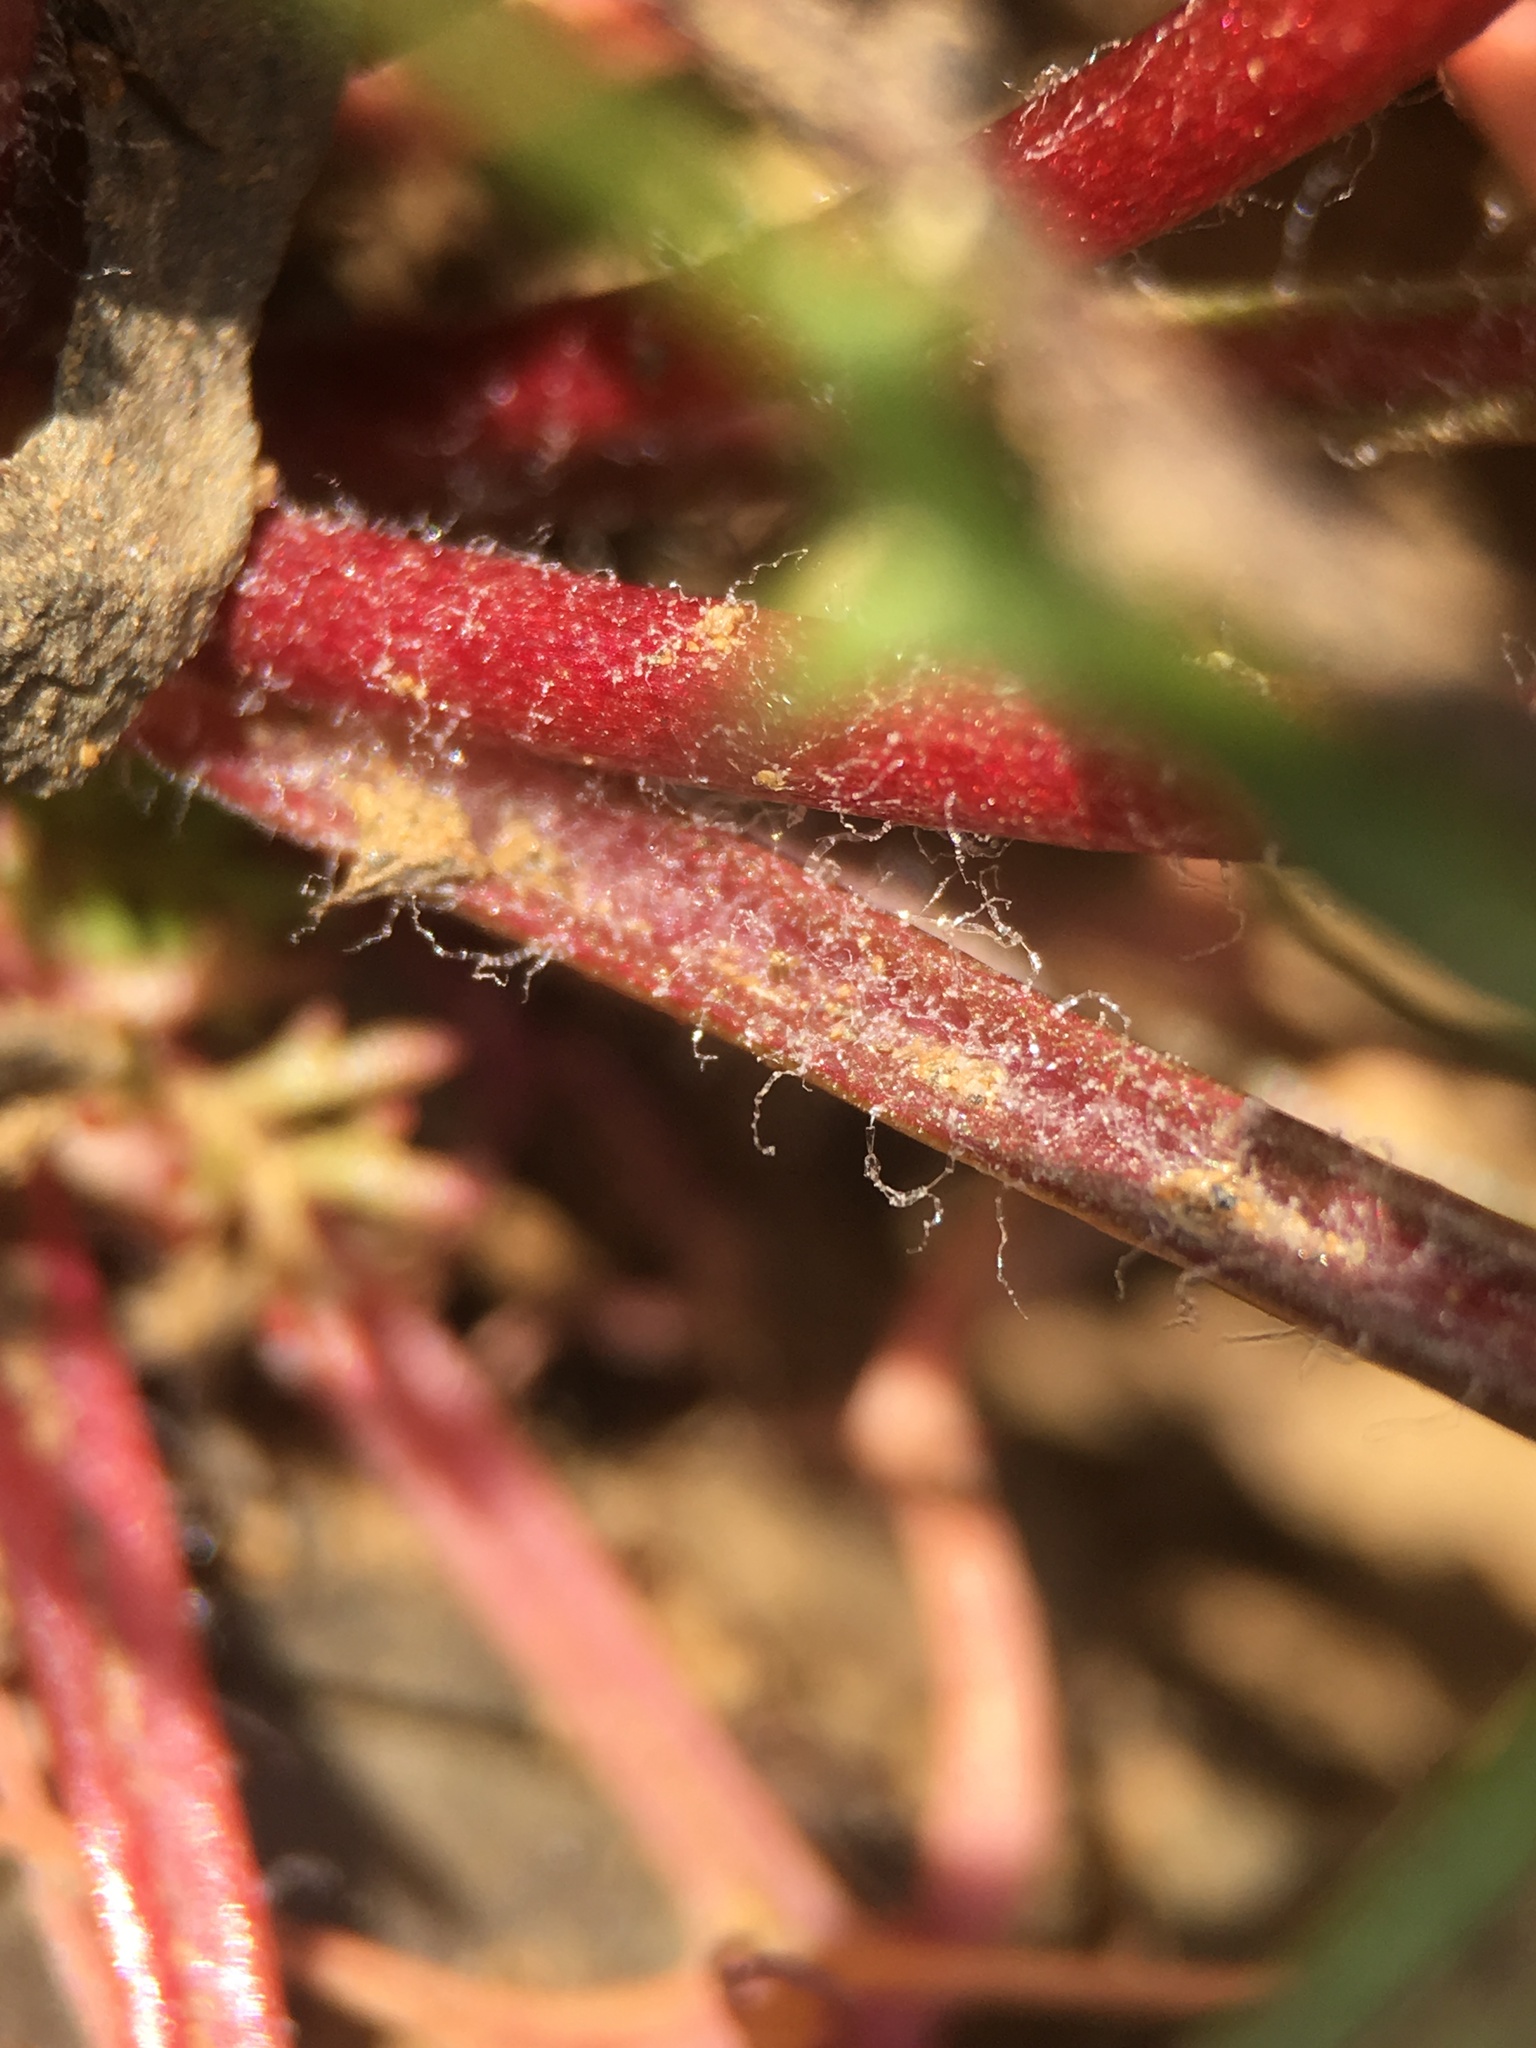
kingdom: Plantae
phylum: Tracheophyta
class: Magnoliopsida
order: Ericales
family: Polemoniaceae
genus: Gilia
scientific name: Gilia achilleifolia
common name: California gily-flower
